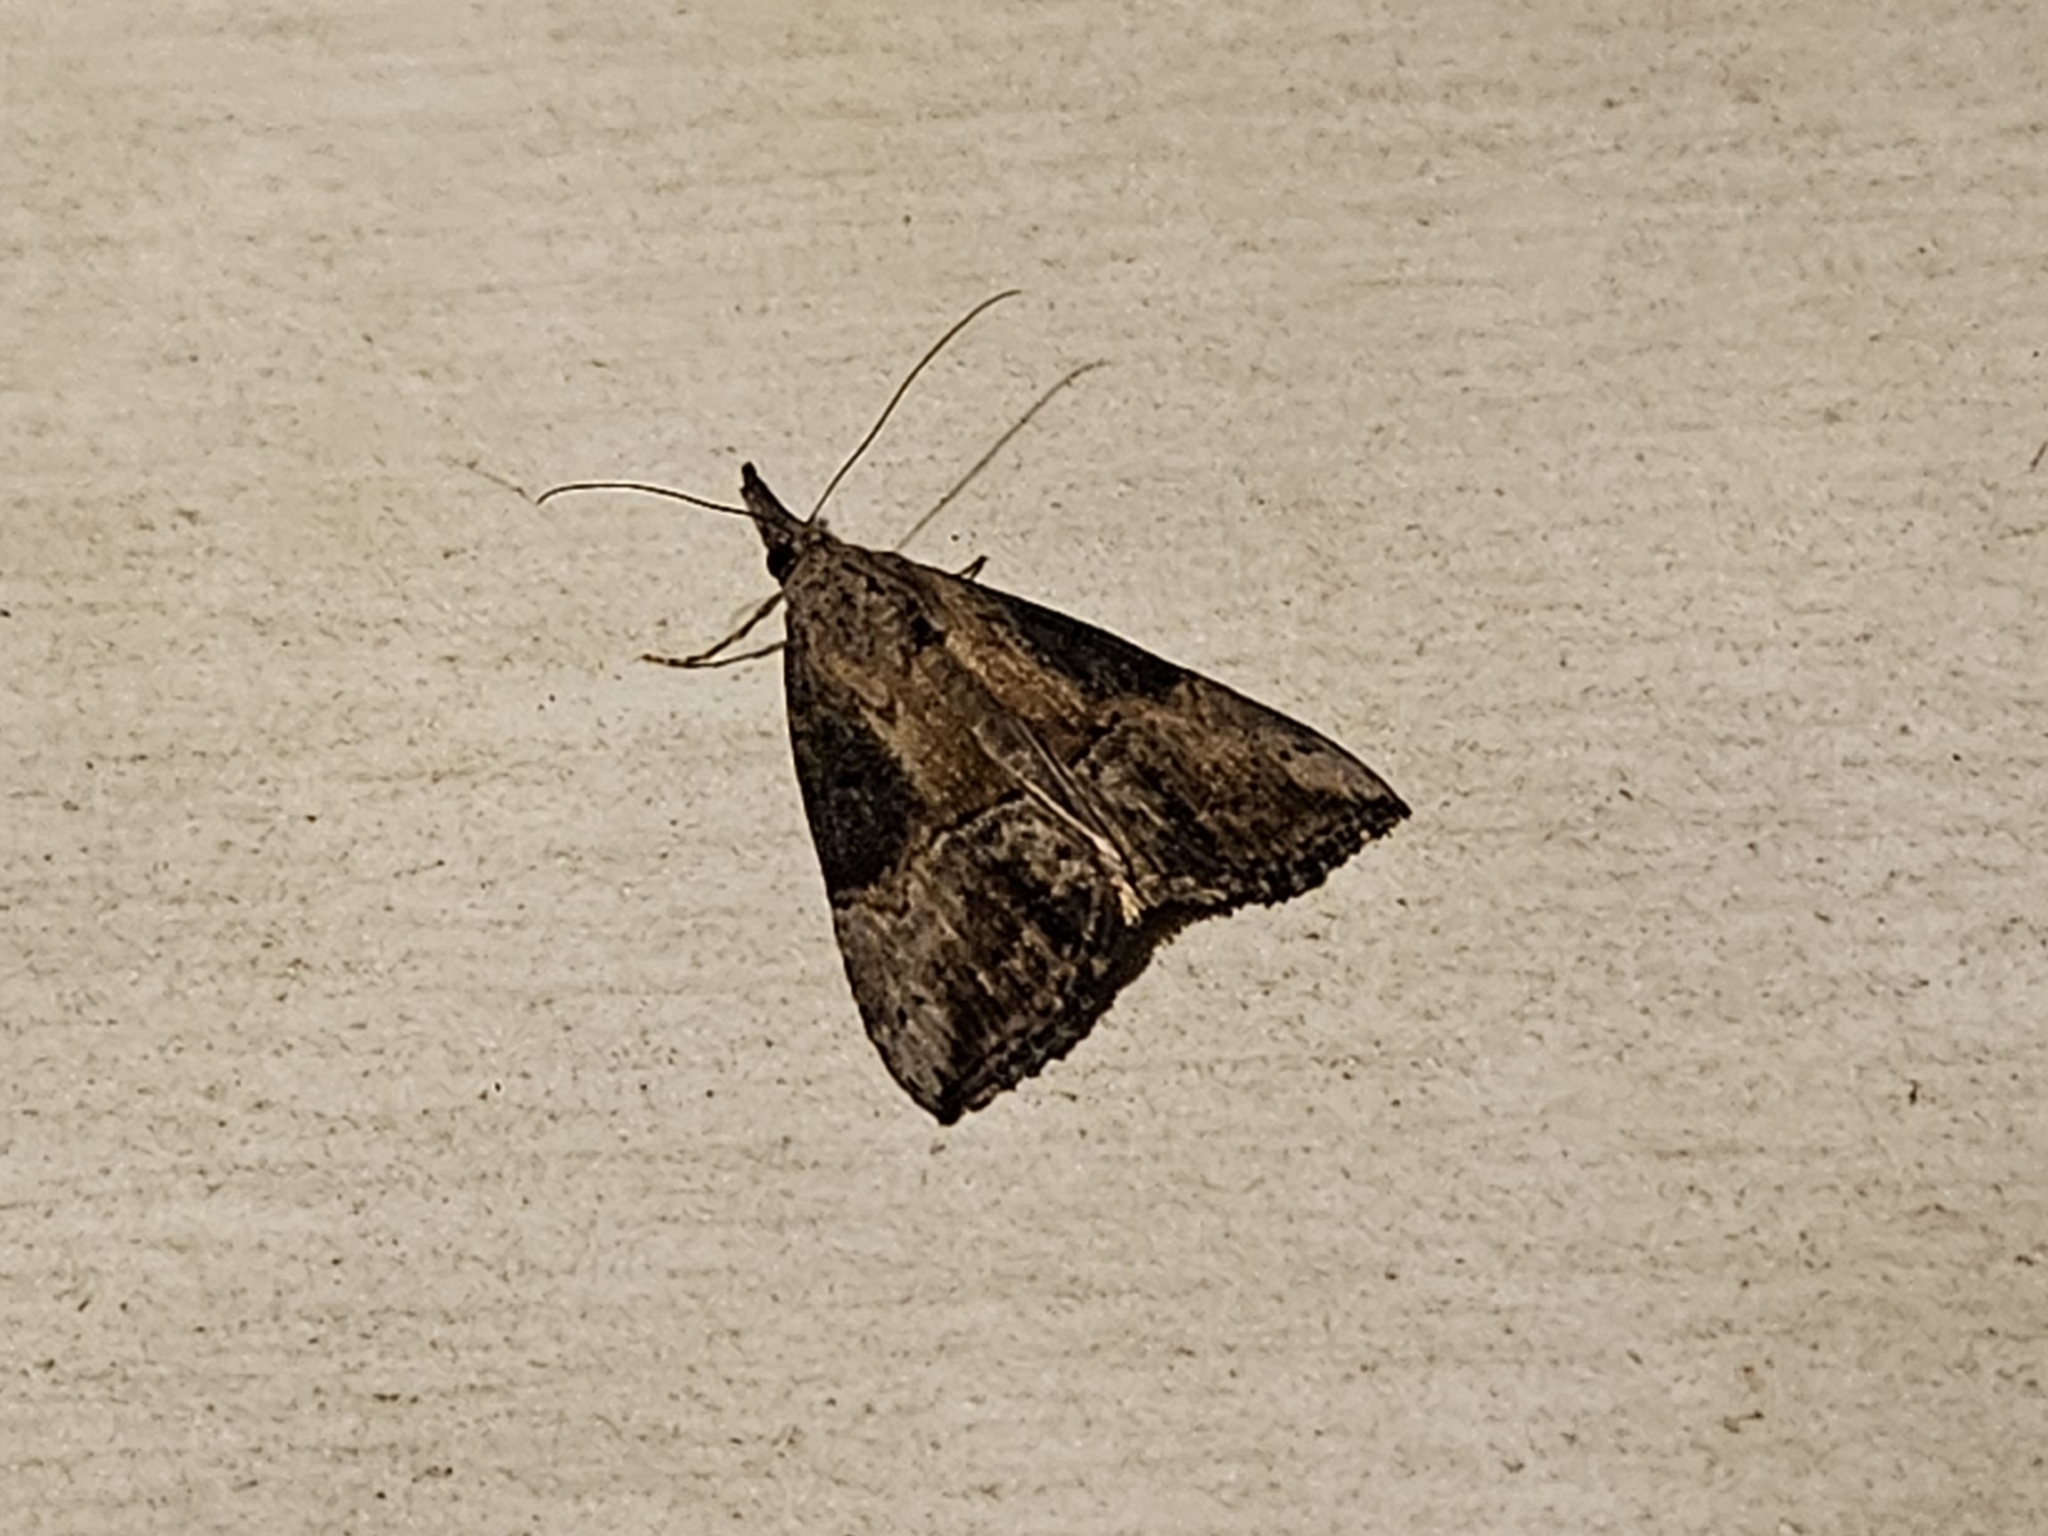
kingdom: Animalia
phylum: Arthropoda
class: Insecta
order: Lepidoptera
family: Erebidae
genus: Hypena
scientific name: Hypena scabra
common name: Green cloverworm
